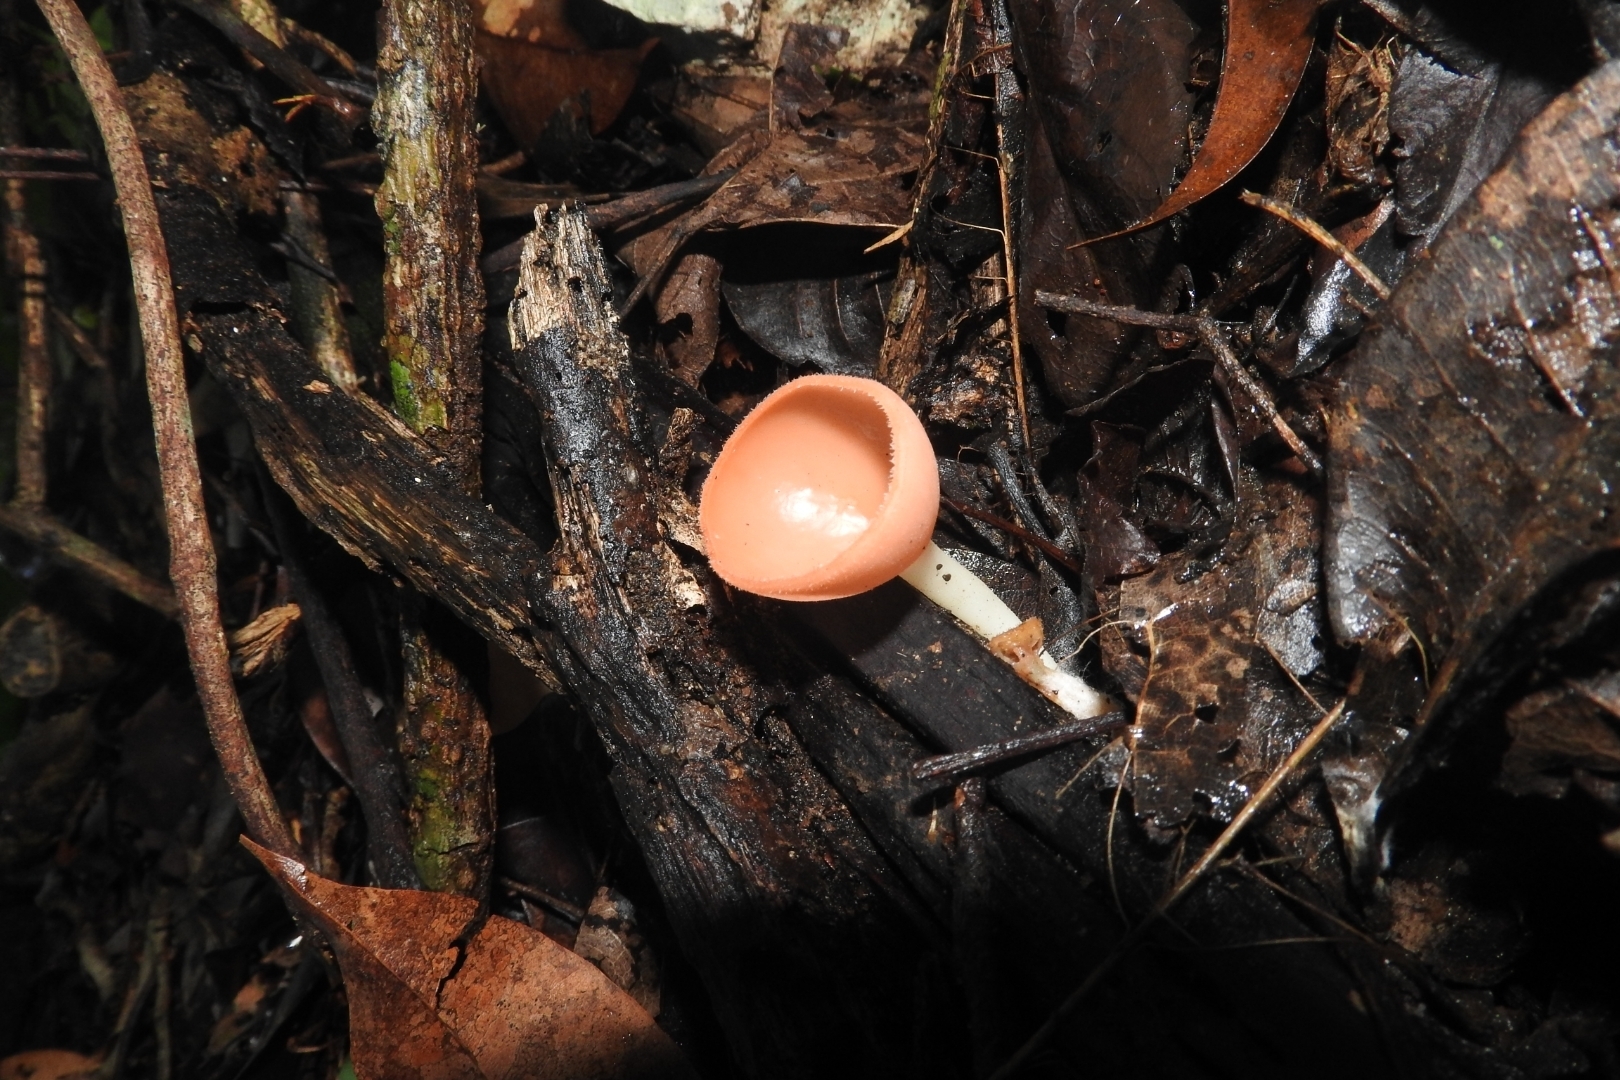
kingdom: Fungi
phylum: Ascomycota
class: Pezizomycetes
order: Pezizales
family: Sarcoscyphaceae
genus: Cookeina
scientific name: Cookeina speciosa
